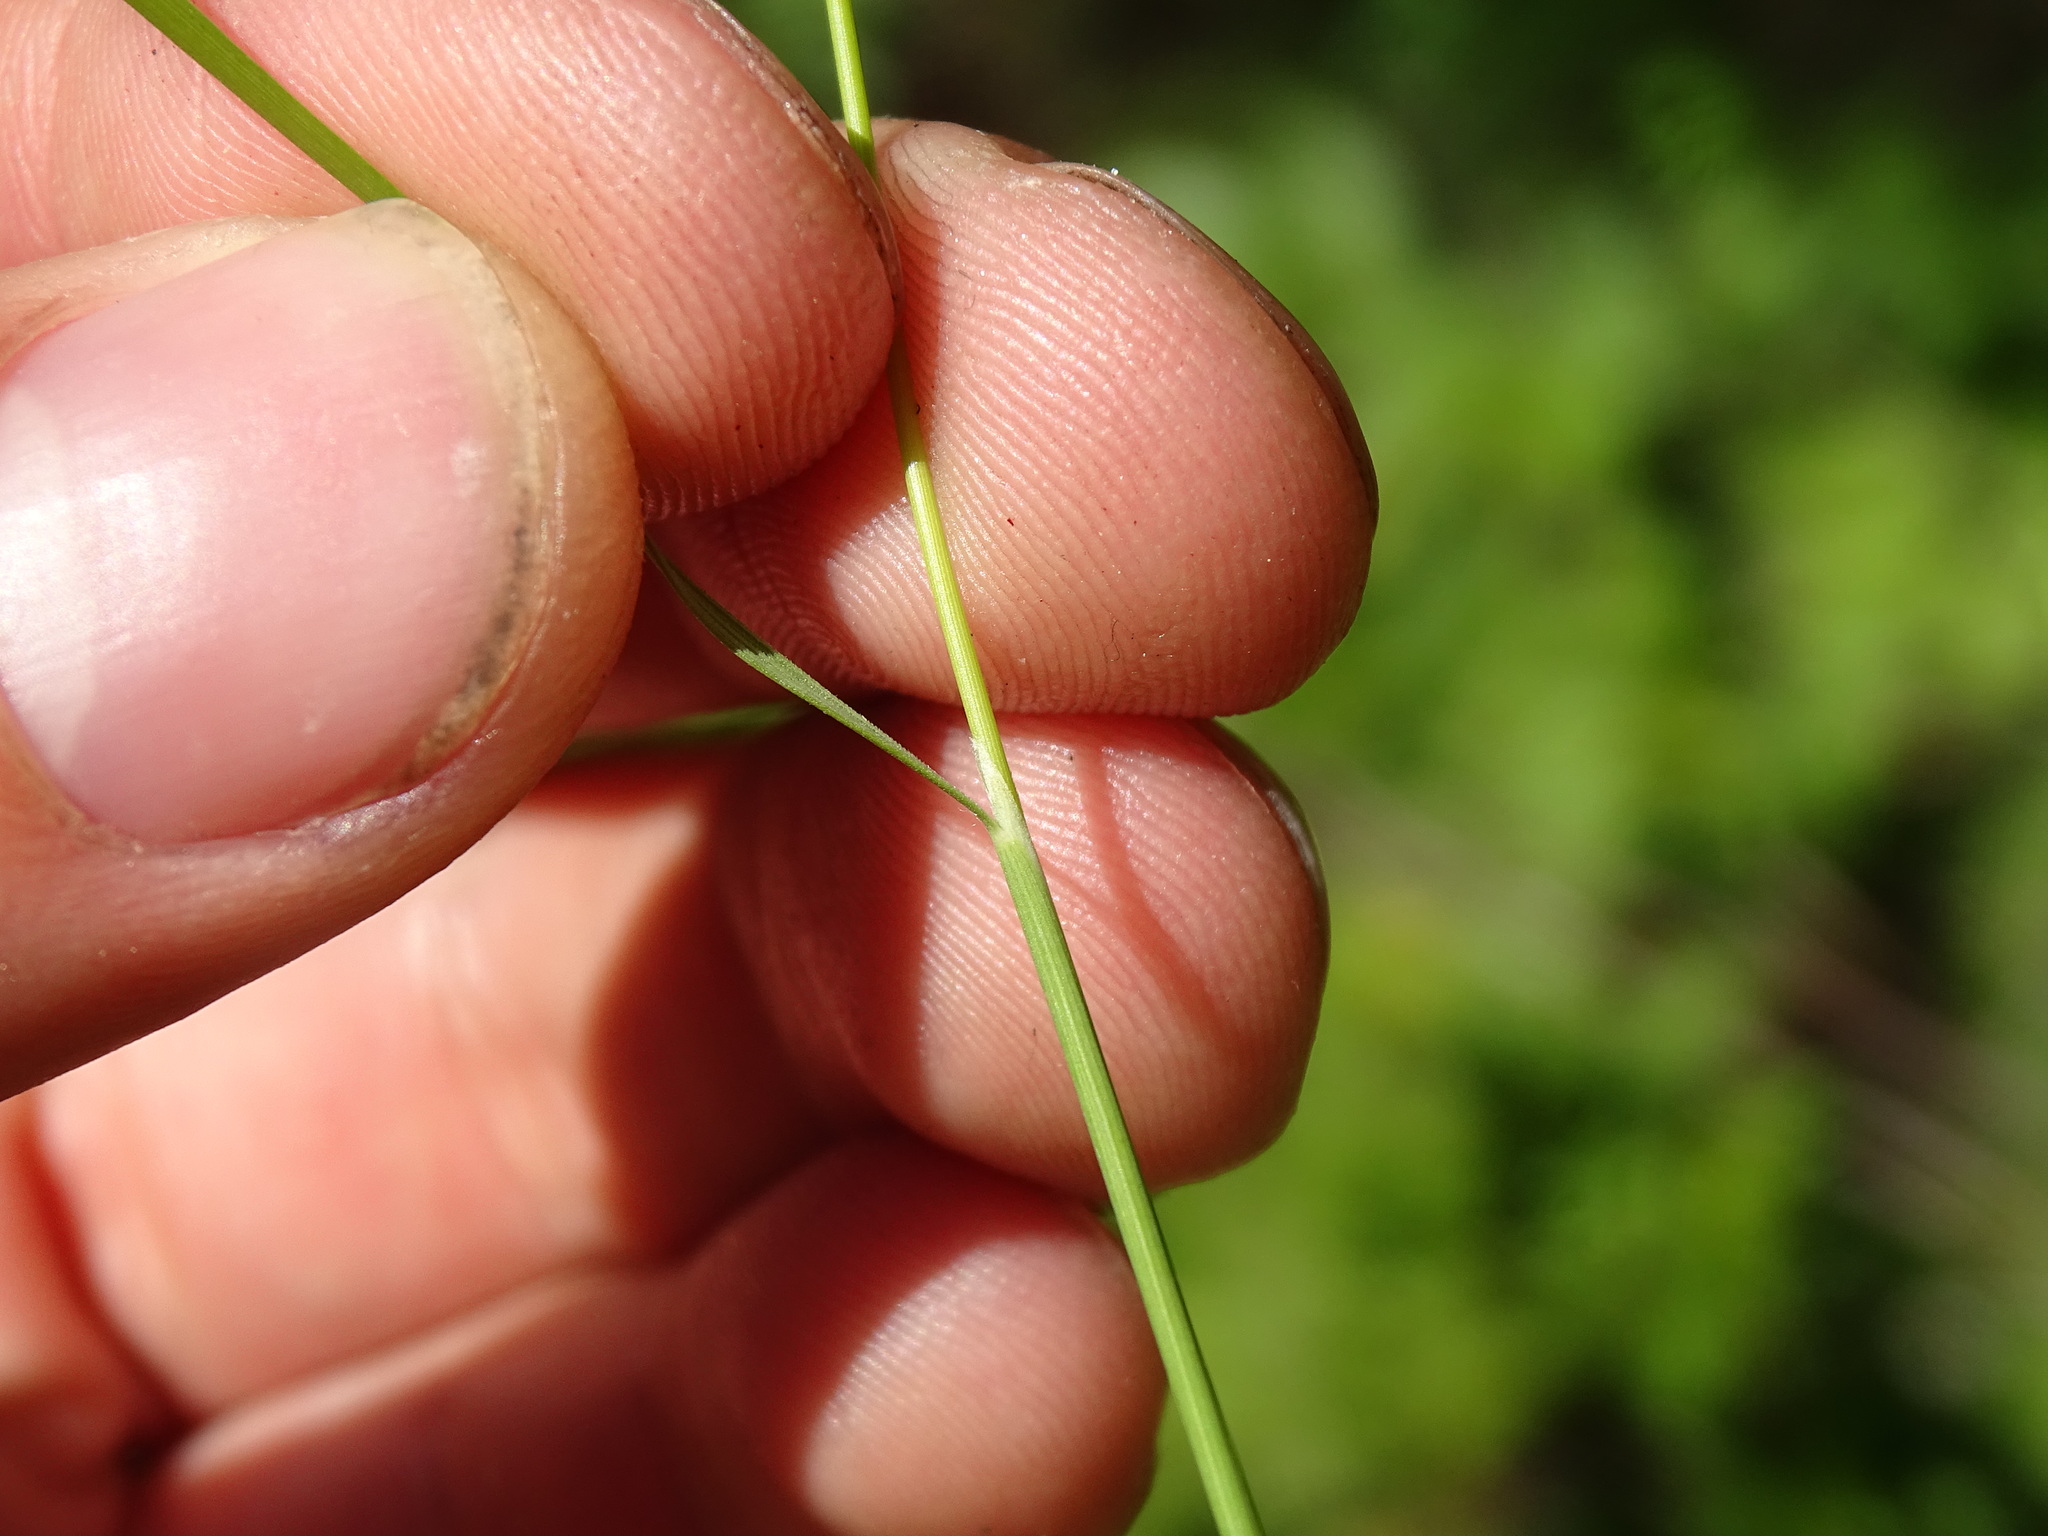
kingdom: Plantae
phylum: Tracheophyta
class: Liliopsida
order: Poales
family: Poaceae
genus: Piptatheropsis
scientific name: Piptatheropsis pungens
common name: Northern ricegrass
